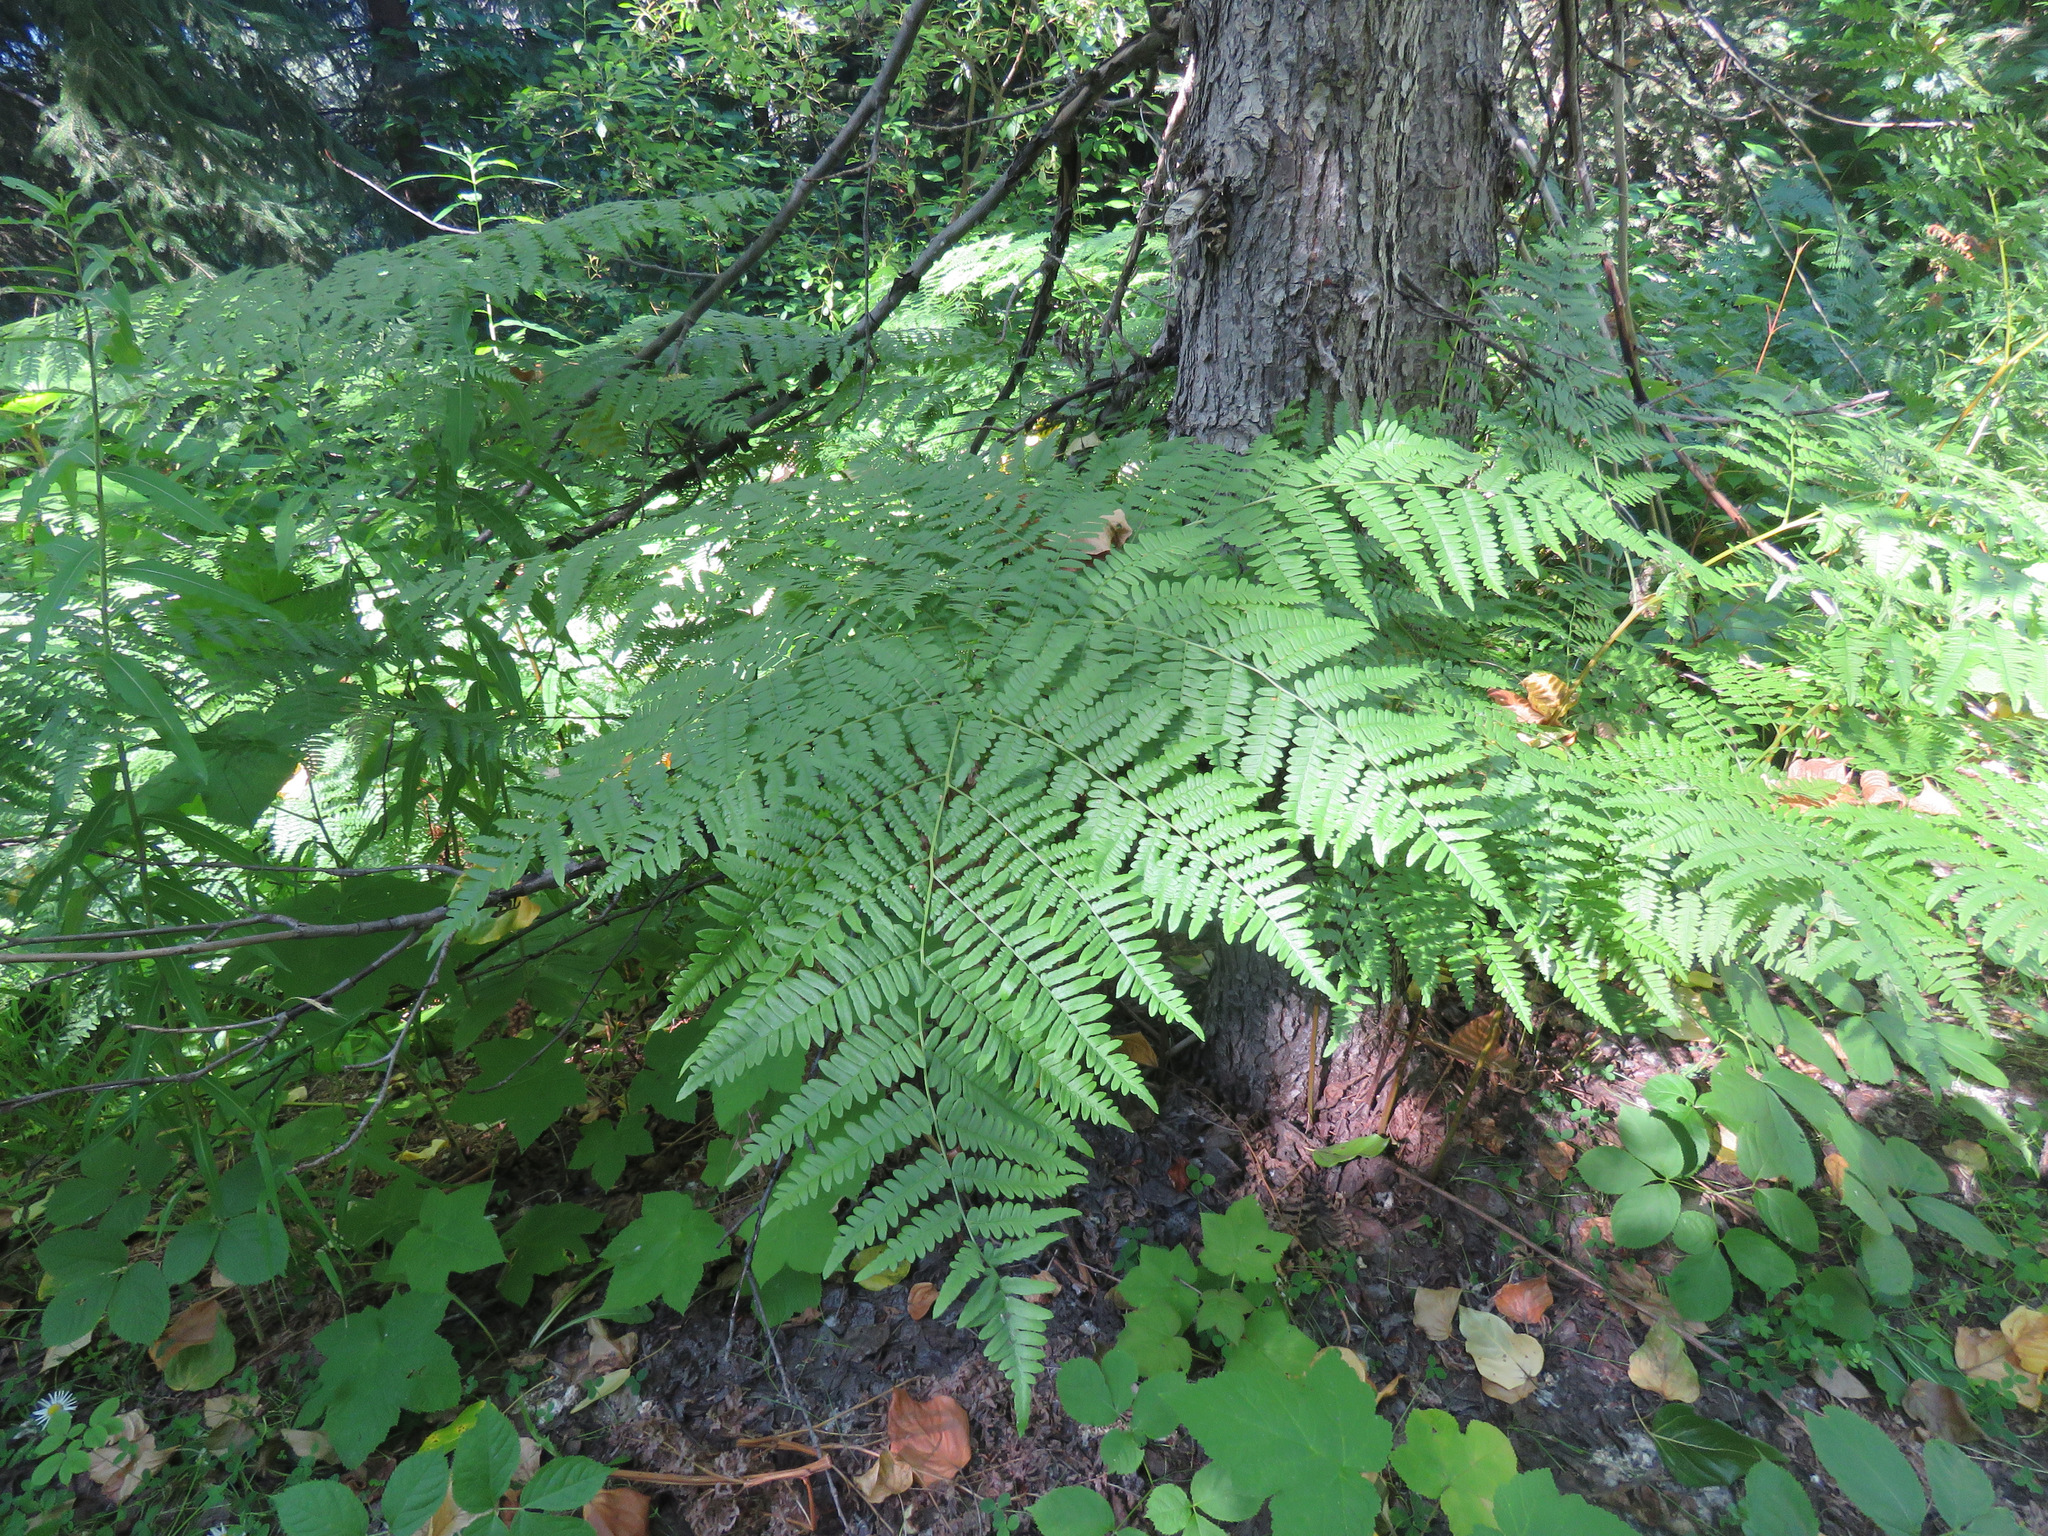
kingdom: Plantae
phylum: Tracheophyta
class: Polypodiopsida
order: Polypodiales
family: Dennstaedtiaceae
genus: Pteridium
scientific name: Pteridium aquilinum
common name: Bracken
